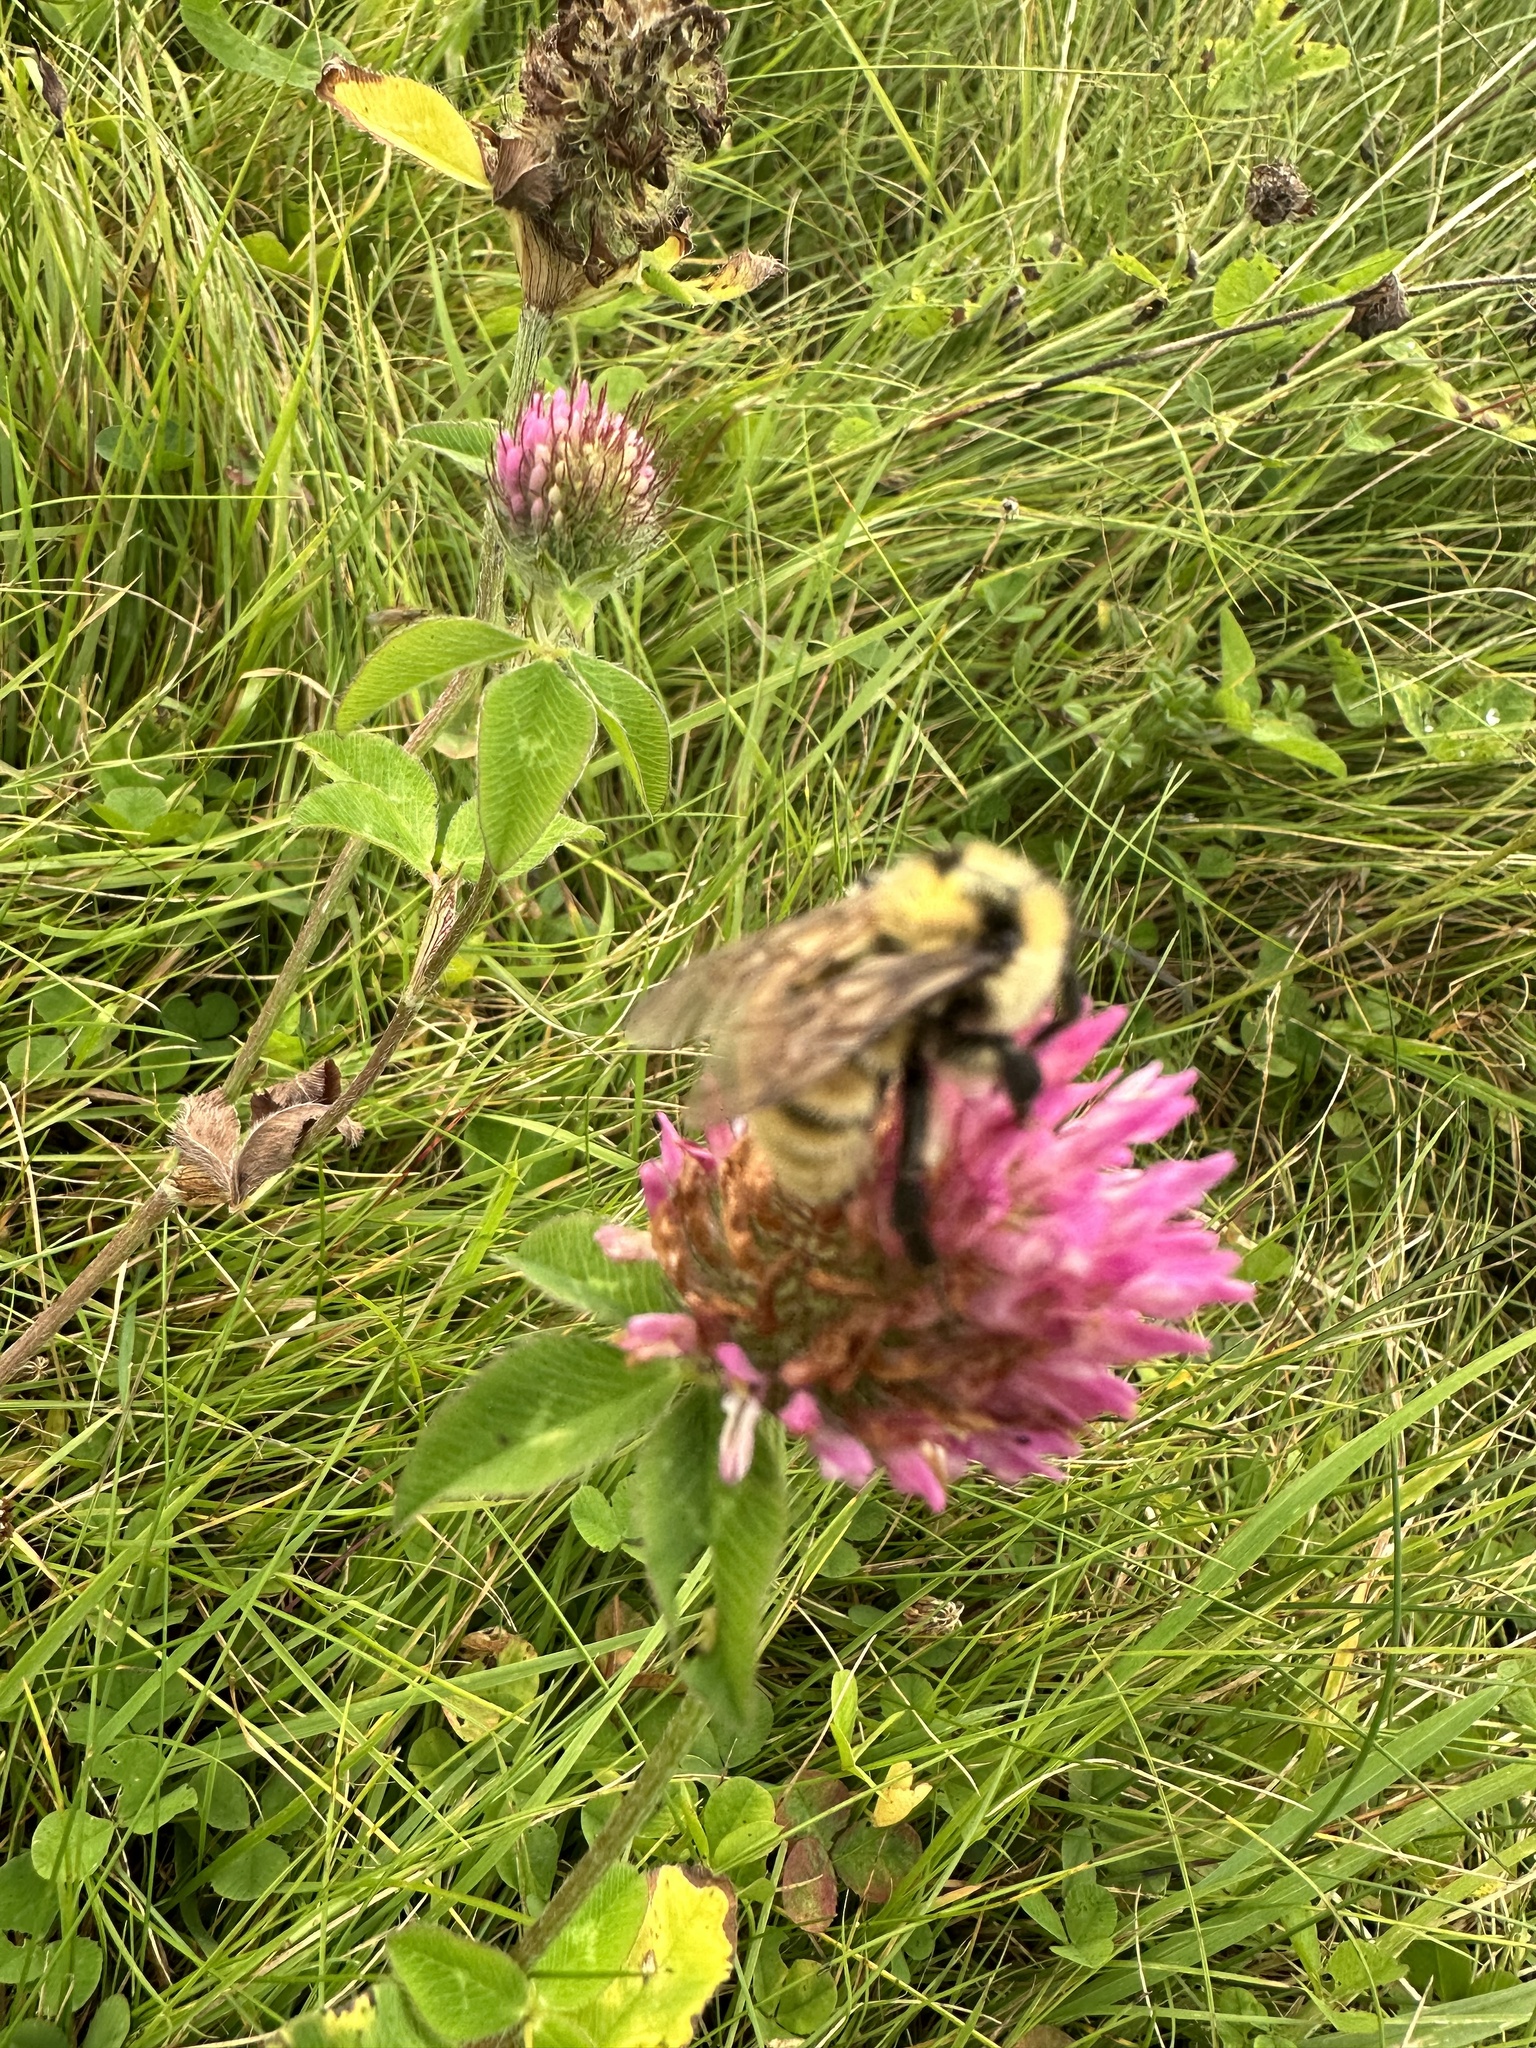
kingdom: Animalia
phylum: Arthropoda
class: Insecta
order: Hymenoptera
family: Apidae
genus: Bombus
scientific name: Bombus fervidus
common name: Yellow bumble bee
